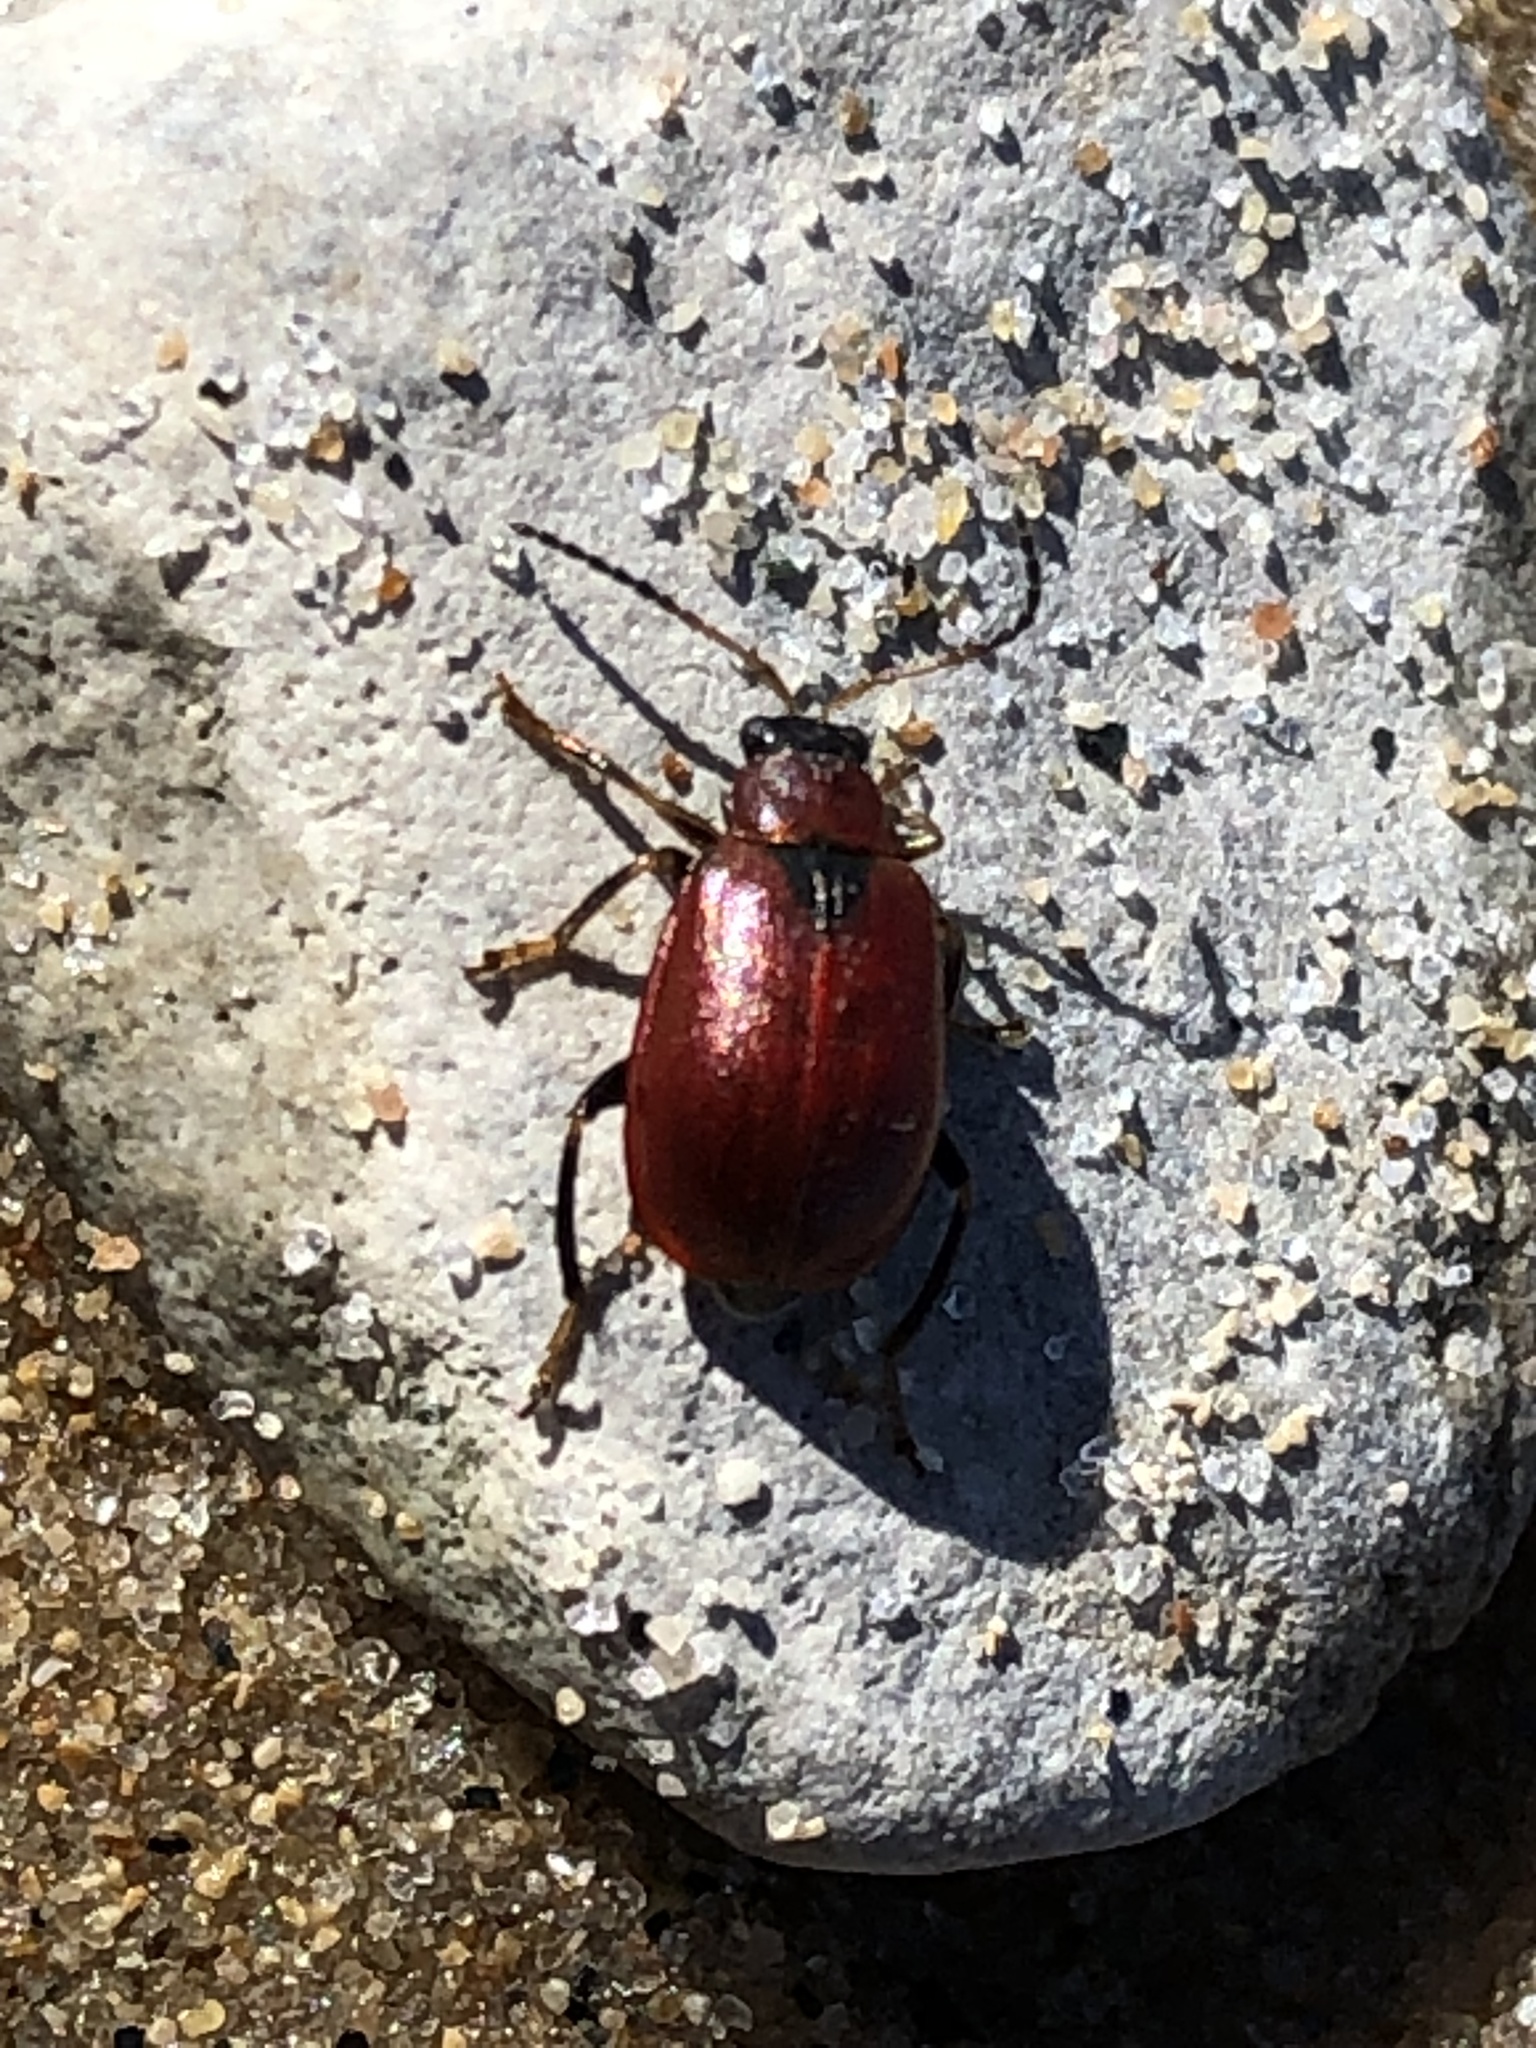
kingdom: Animalia
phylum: Arthropoda
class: Insecta
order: Coleoptera
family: Chrysomelidae
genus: Cerotoma
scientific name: Cerotoma trifurcata
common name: Bean leaf beetle
